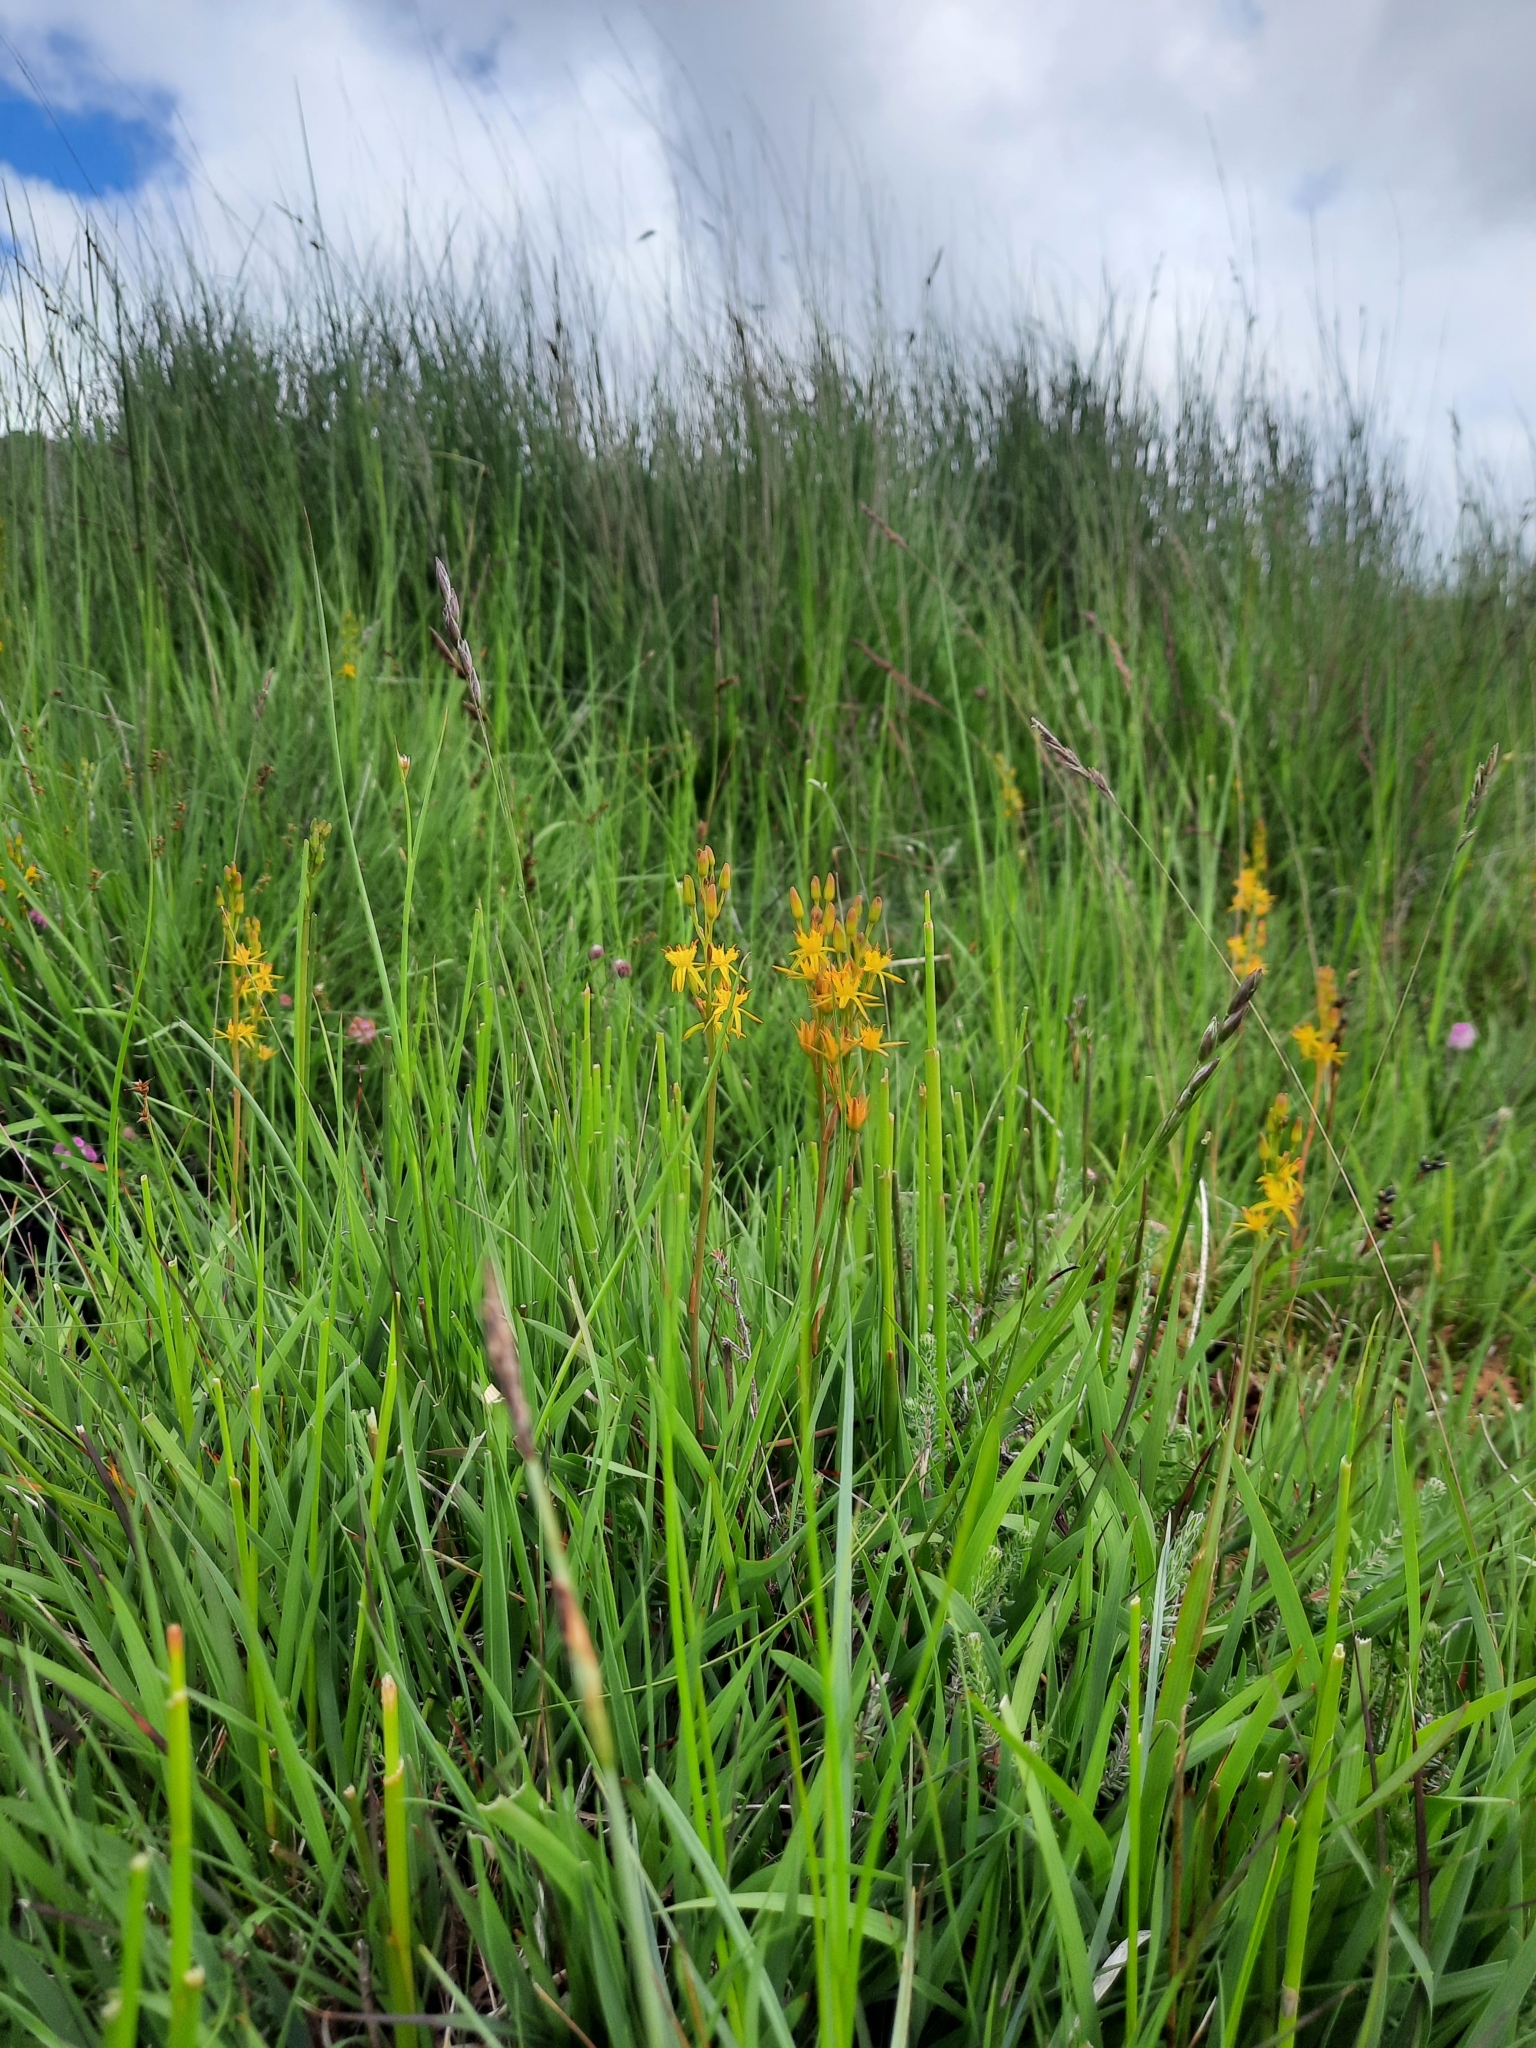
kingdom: Plantae
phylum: Tracheophyta
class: Liliopsida
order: Dioscoreales
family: Nartheciaceae
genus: Narthecium
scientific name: Narthecium ossifragum
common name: Bog asphodel
